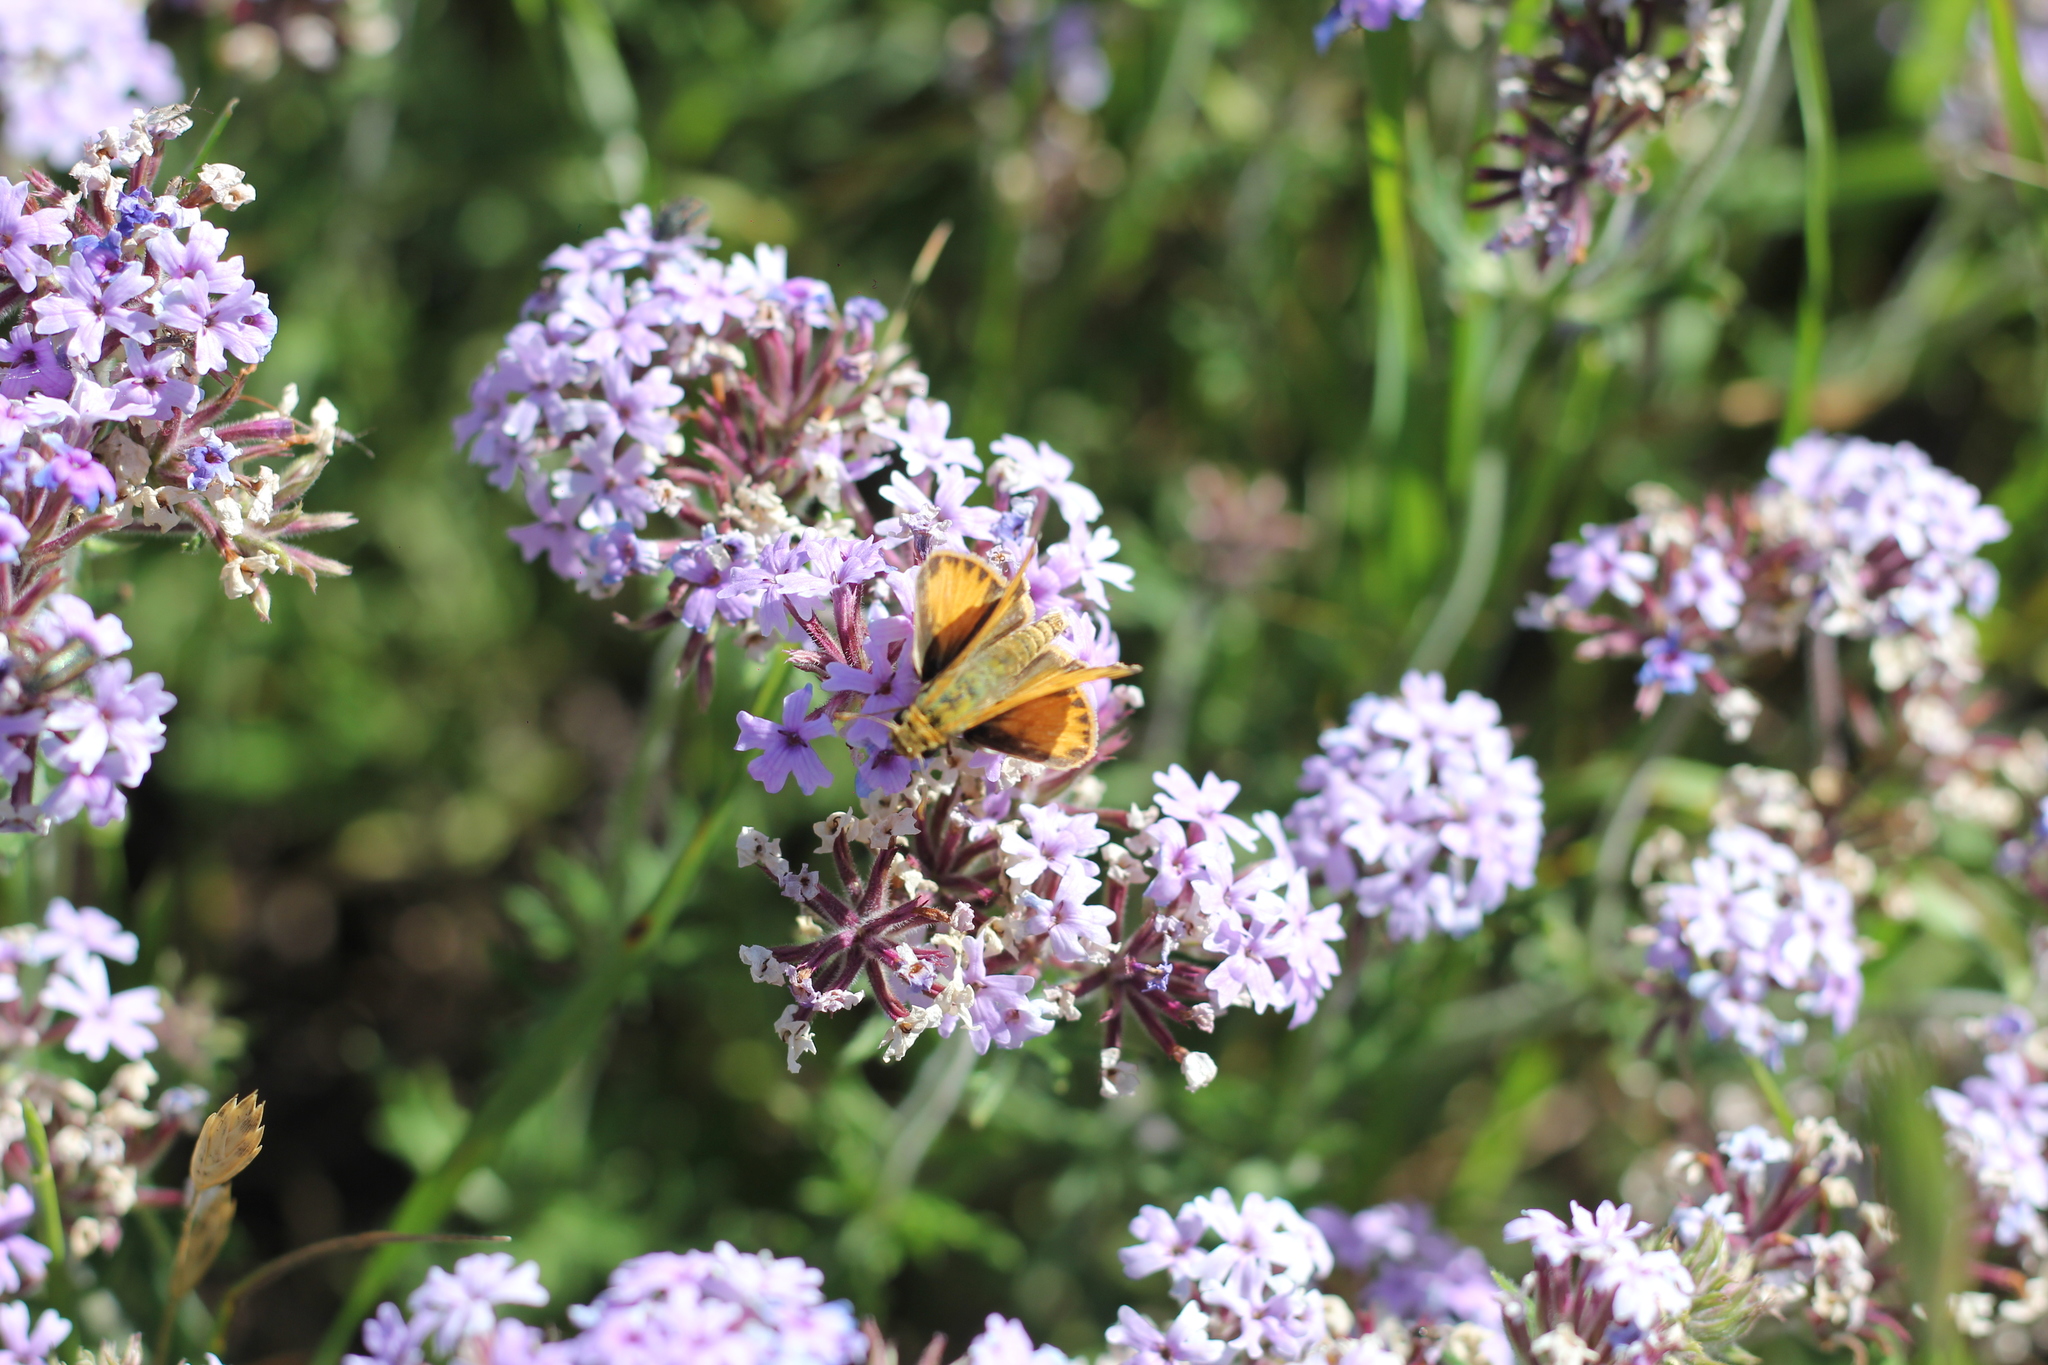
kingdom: Animalia
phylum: Arthropoda
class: Insecta
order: Lepidoptera
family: Hesperiidae
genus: Hylephila
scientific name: Hylephila phyleus
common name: Fiery skipper
